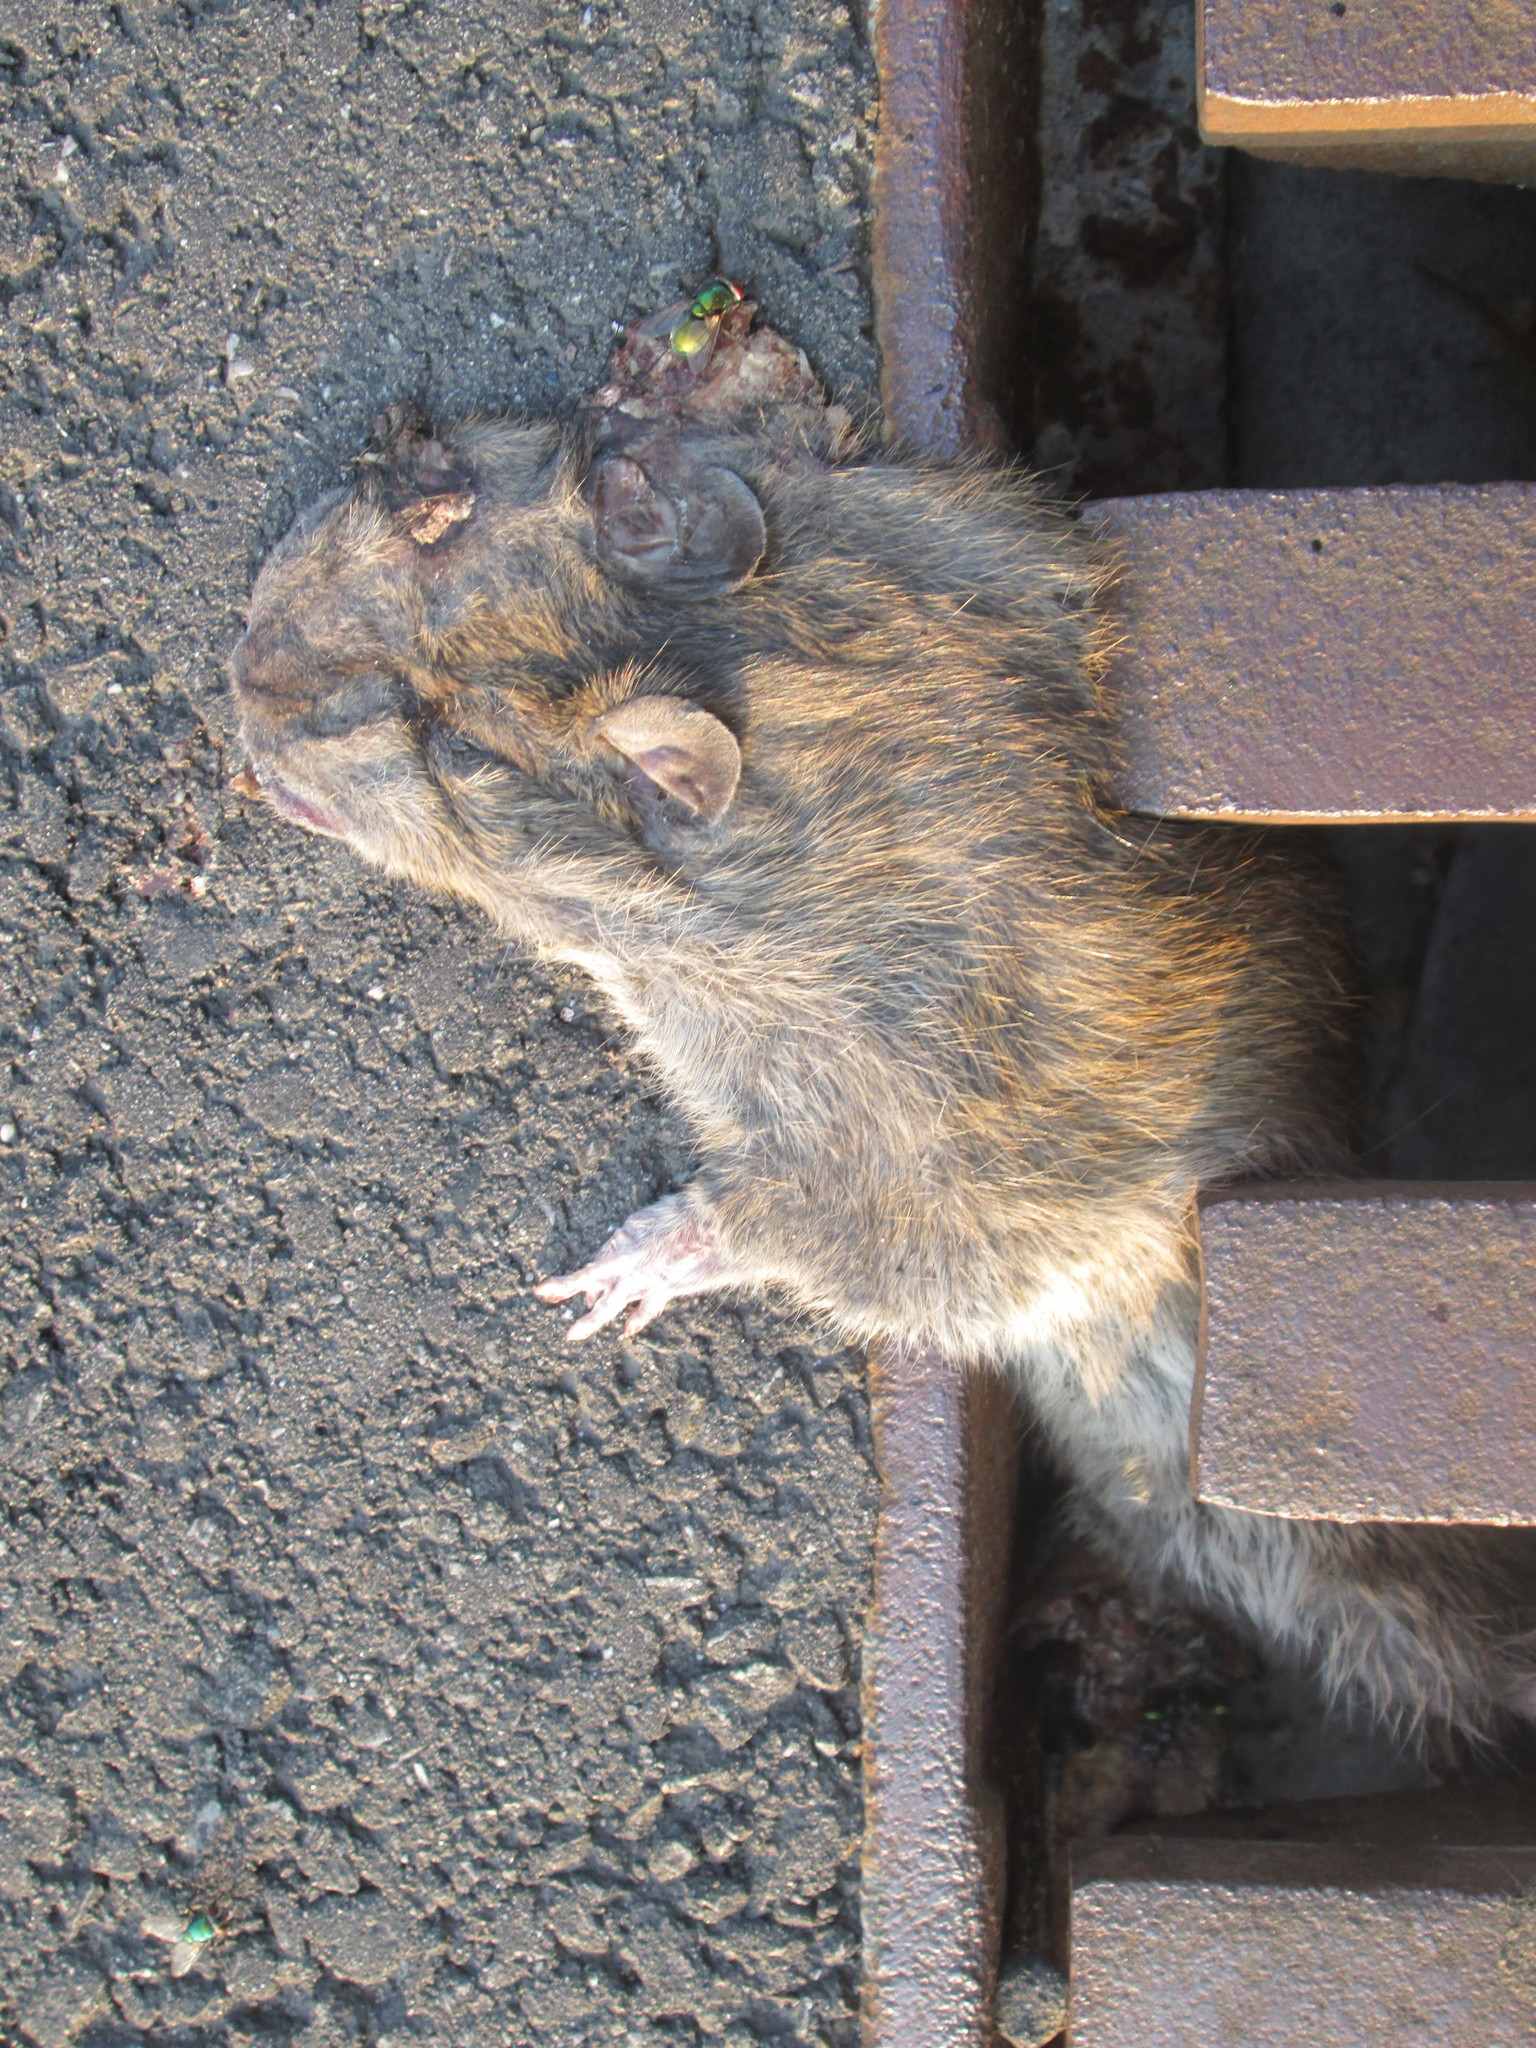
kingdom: Animalia
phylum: Chordata
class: Mammalia
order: Rodentia
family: Muridae
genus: Rattus
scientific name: Rattus norvegicus
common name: Brown rat
